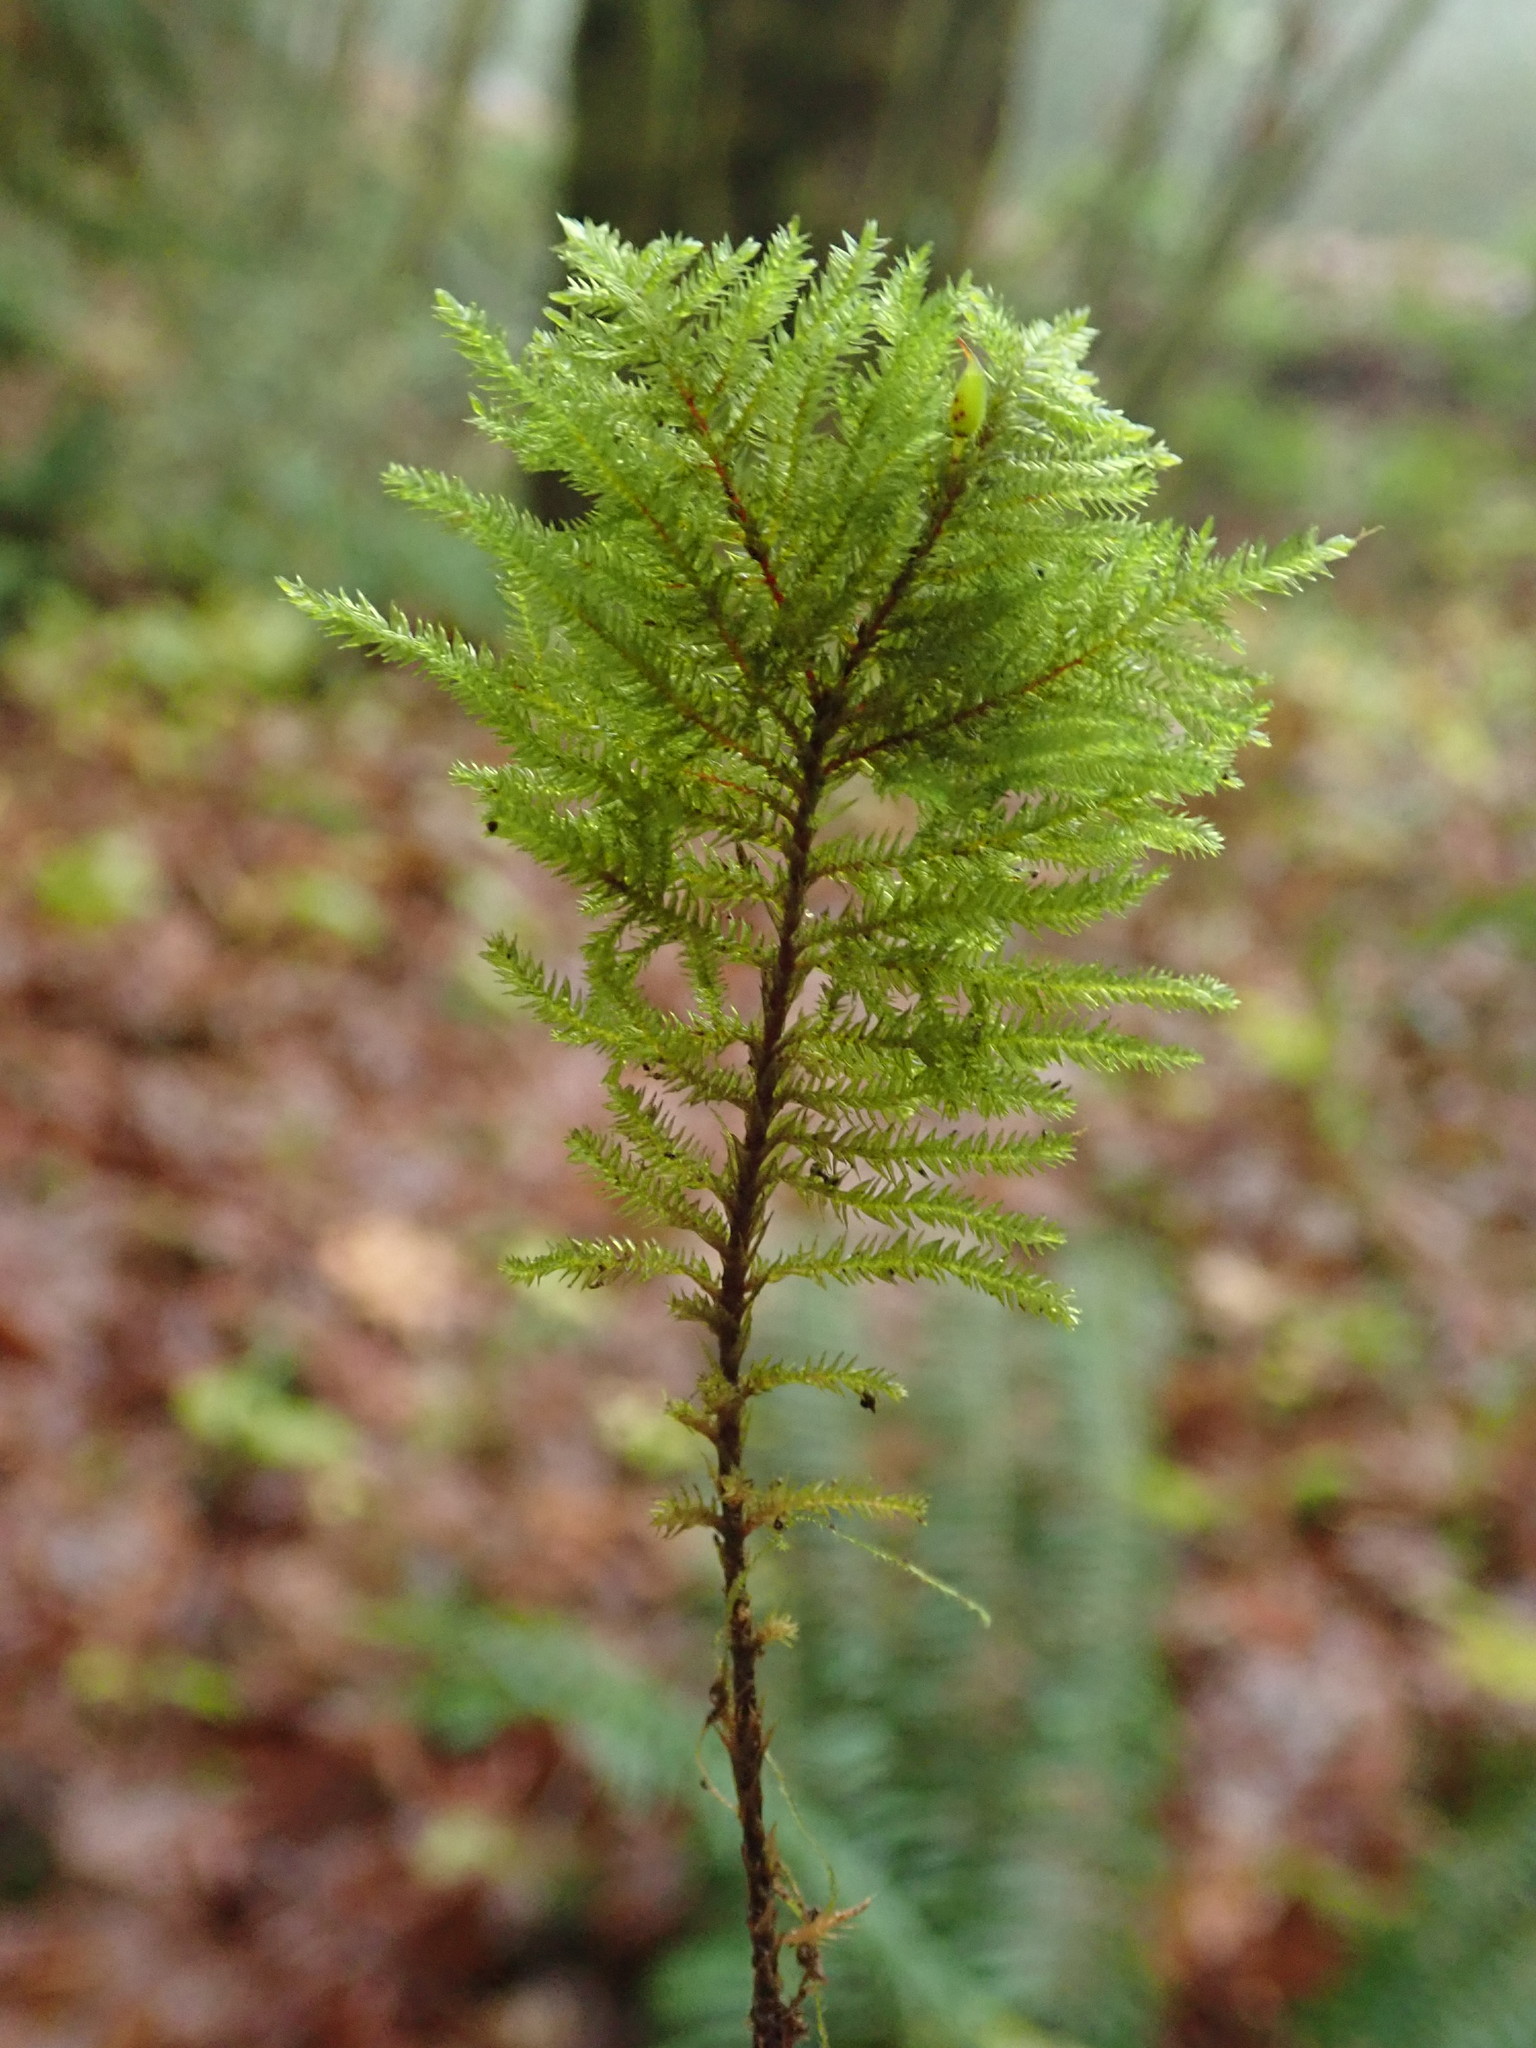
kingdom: Plantae
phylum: Bryophyta
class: Bryopsida
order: Hypnales
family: Cryphaeaceae
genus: Dendroalsia
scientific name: Dendroalsia abietina
